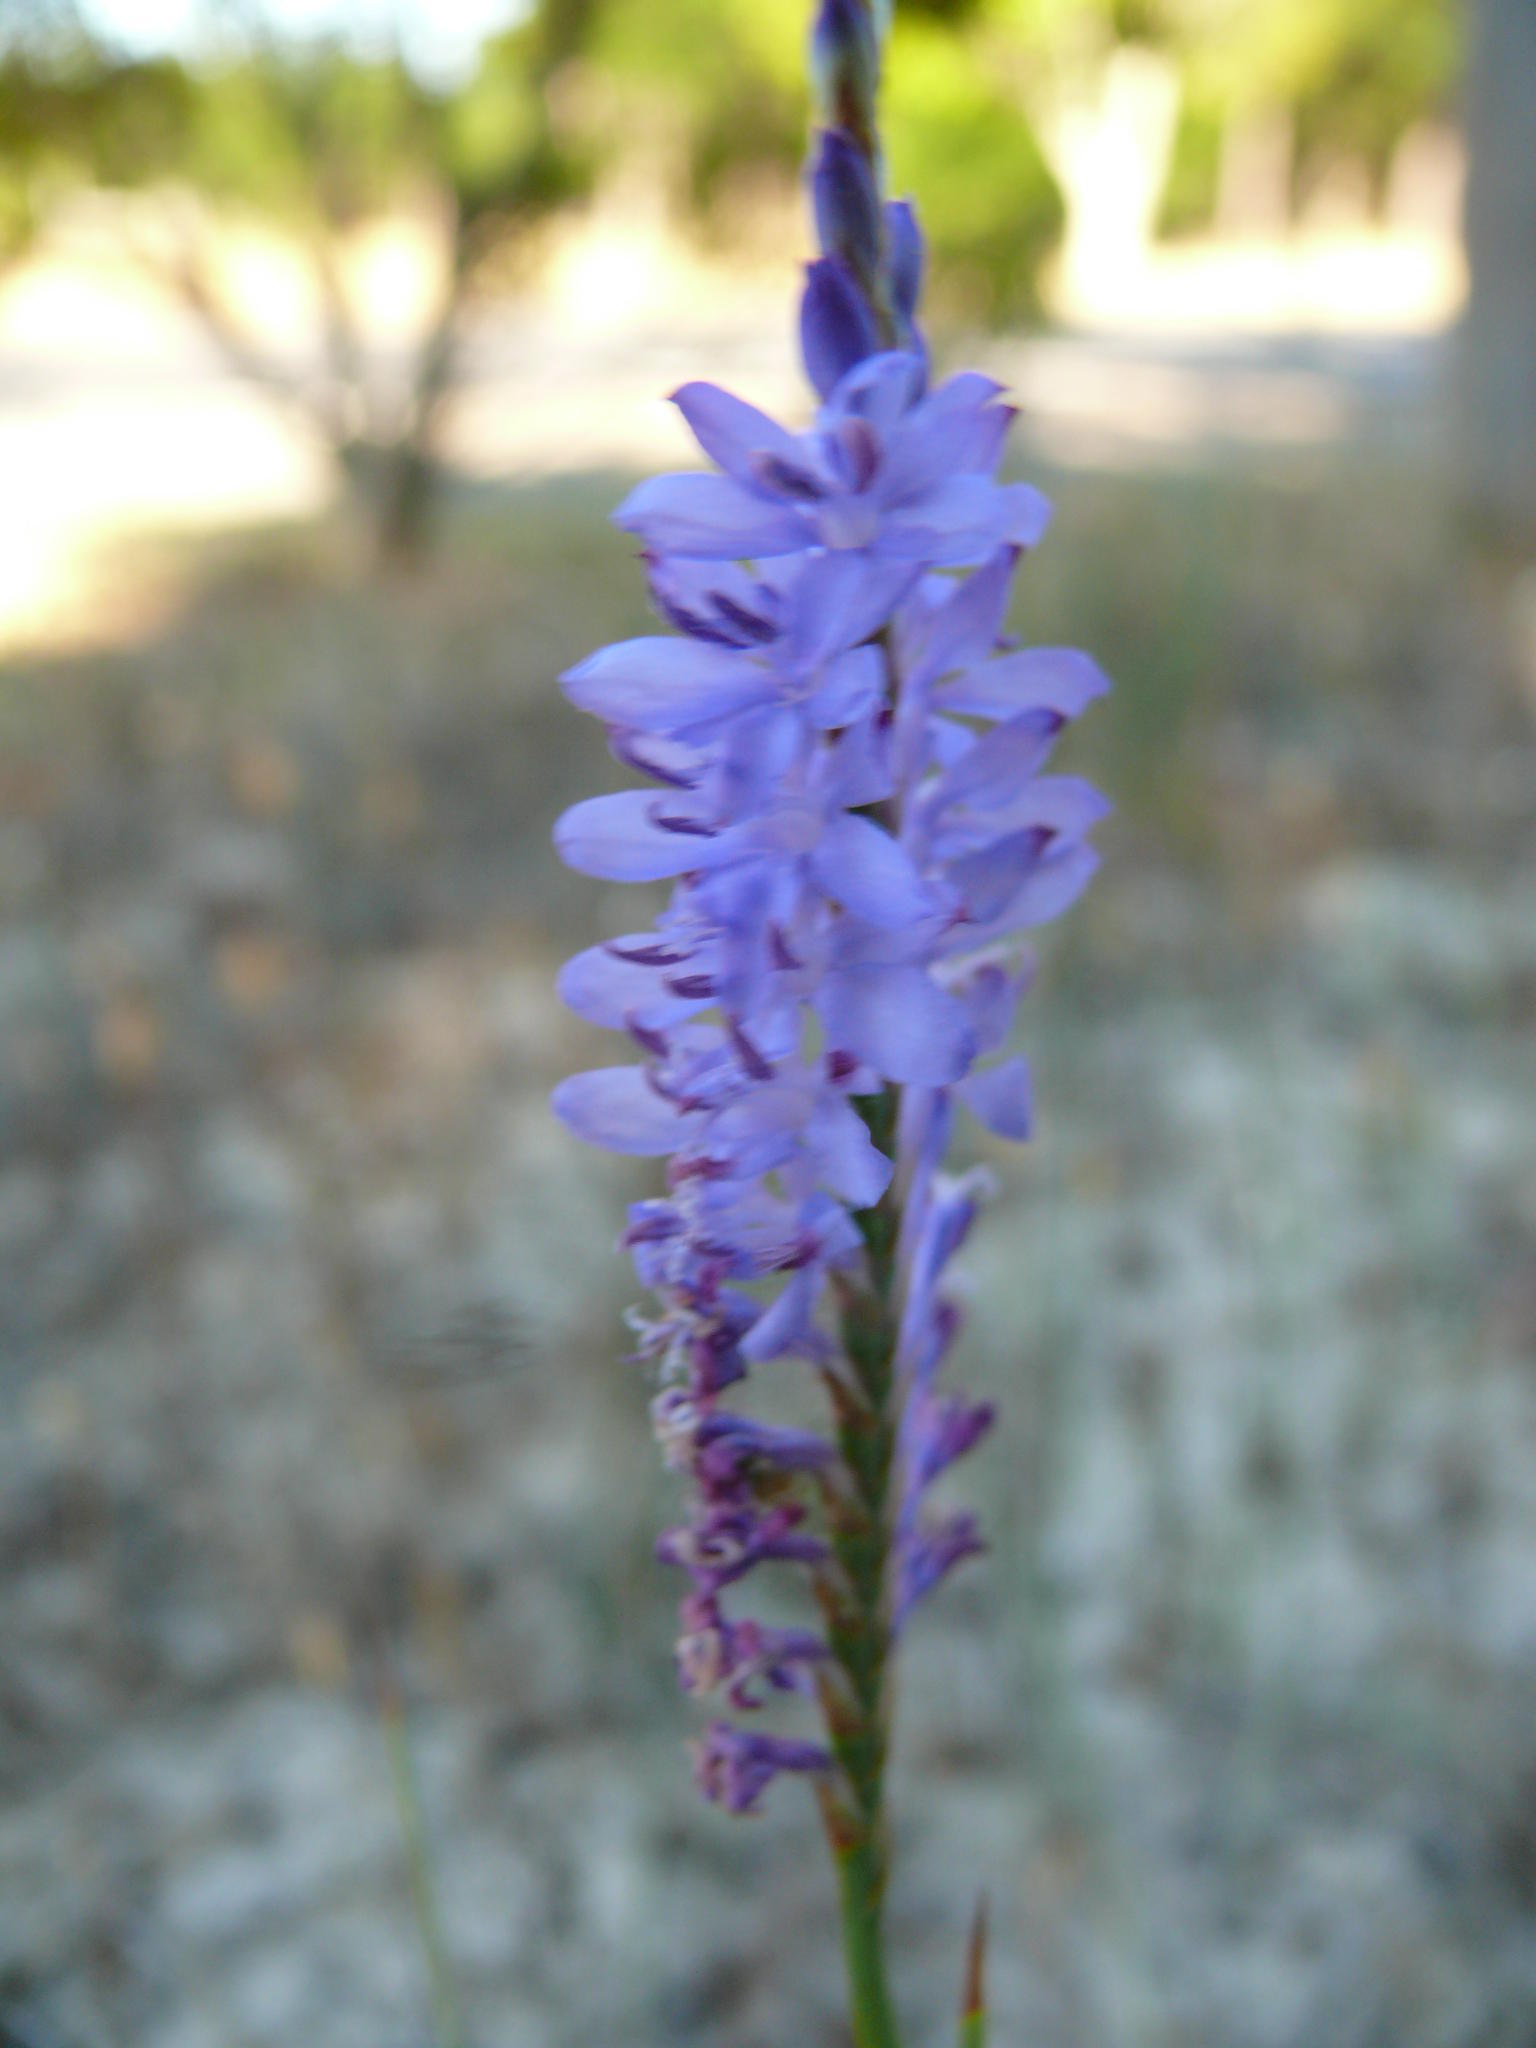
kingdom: Plantae
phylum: Tracheophyta
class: Liliopsida
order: Asparagales
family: Iridaceae
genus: Micranthus
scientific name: Micranthus alopecuroides
